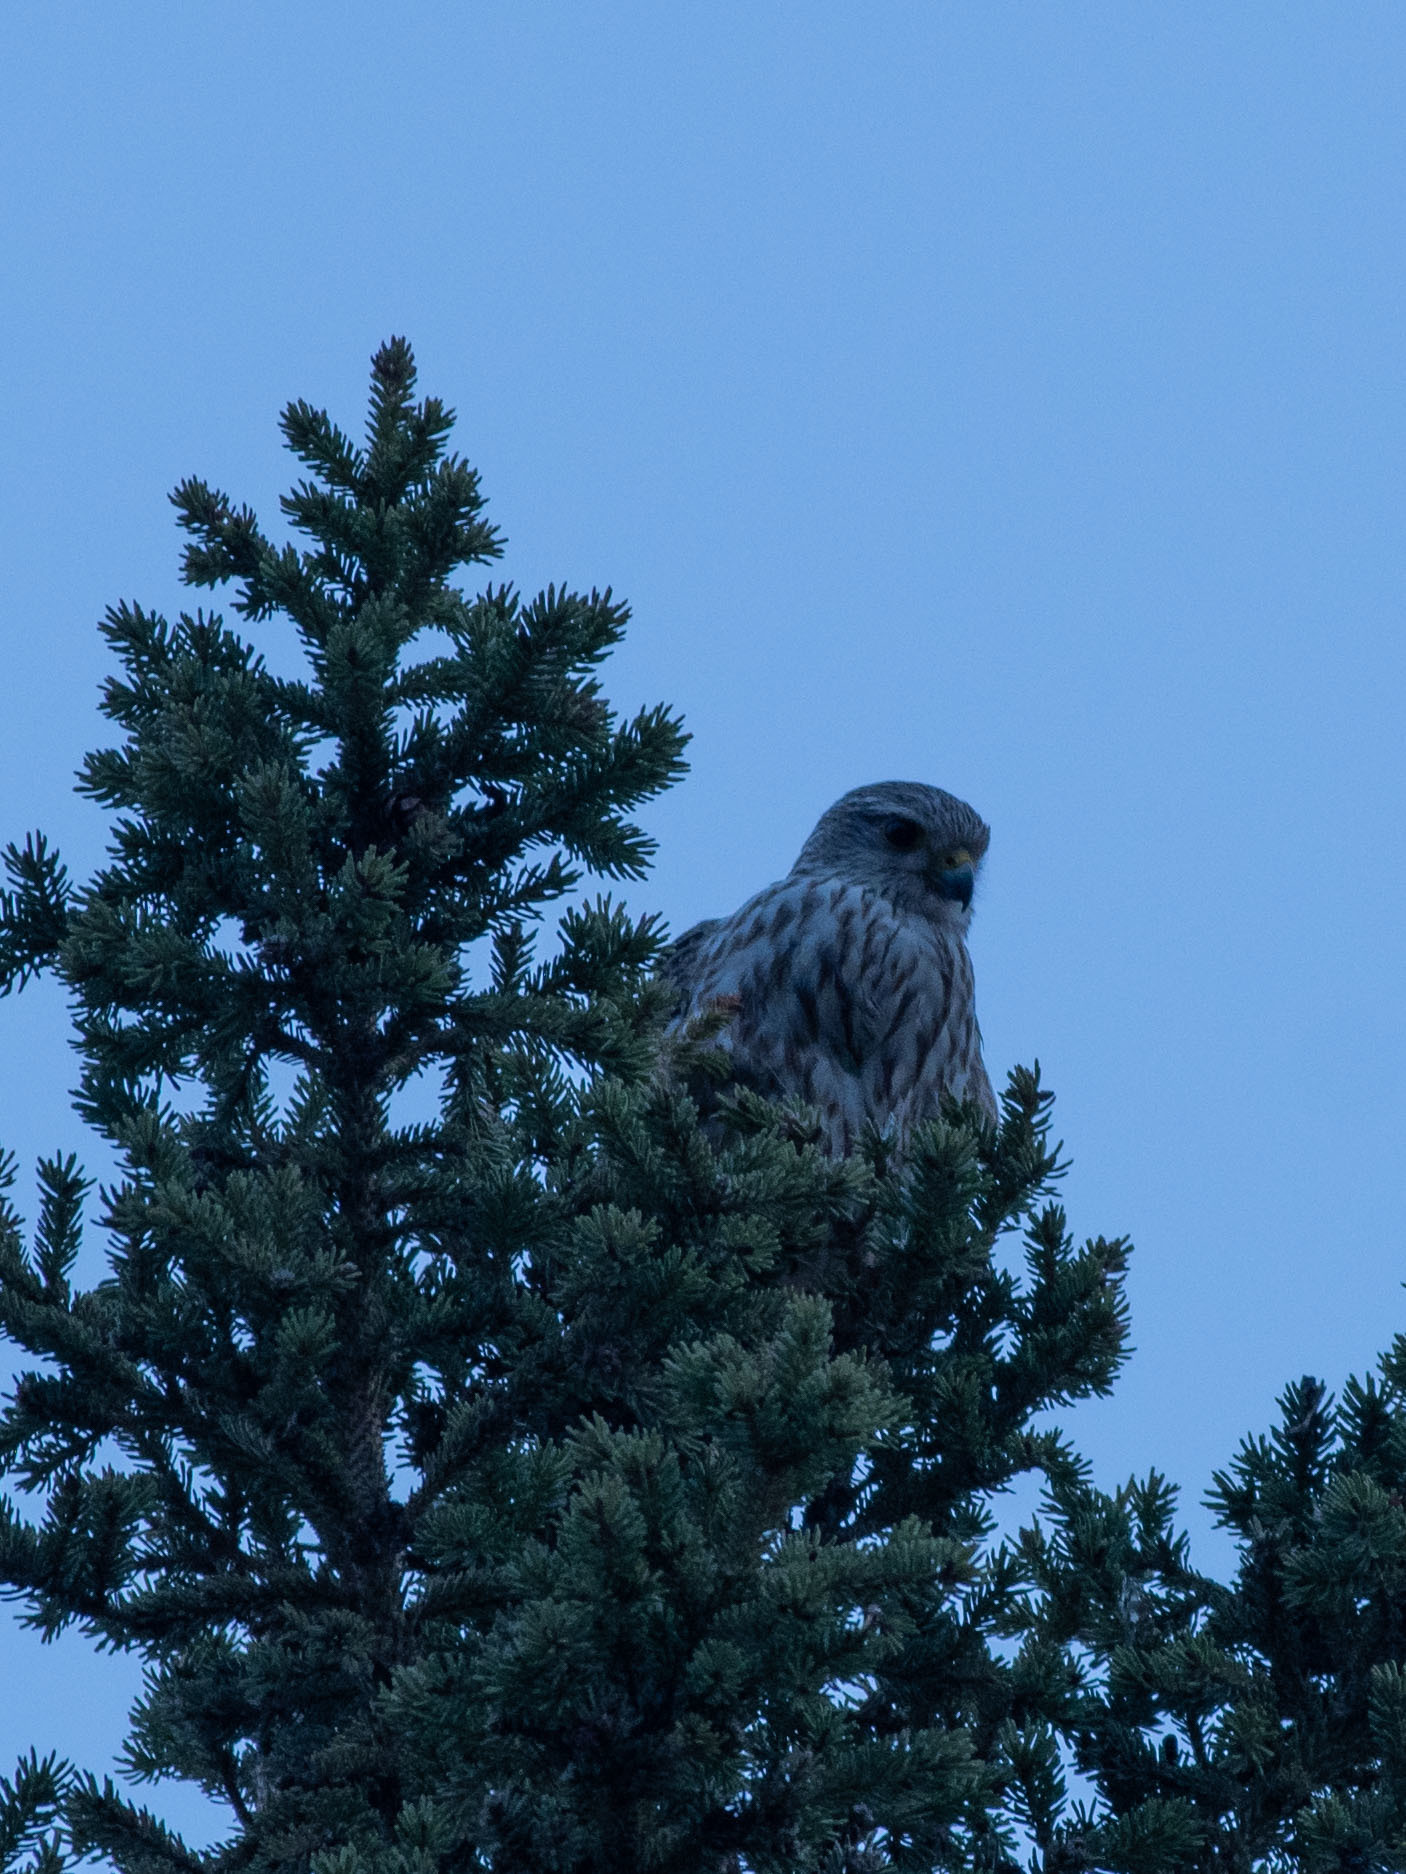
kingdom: Animalia
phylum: Chordata
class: Aves
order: Falconiformes
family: Falconidae
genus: Falco
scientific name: Falco columbarius
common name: Merlin
